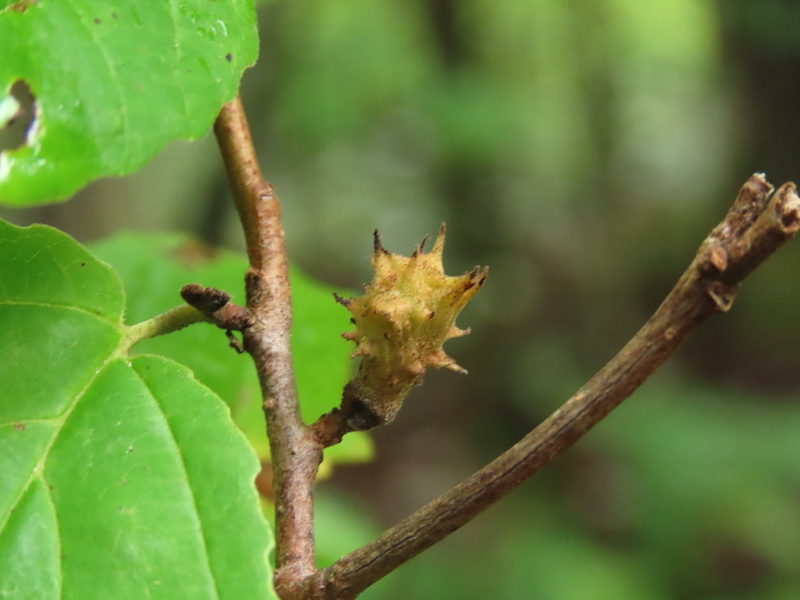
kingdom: Animalia
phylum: Arthropoda
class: Insecta
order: Hemiptera
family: Aphididae
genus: Hamamelistes
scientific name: Hamamelistes spinosus
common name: Witch hazel gall aphid
